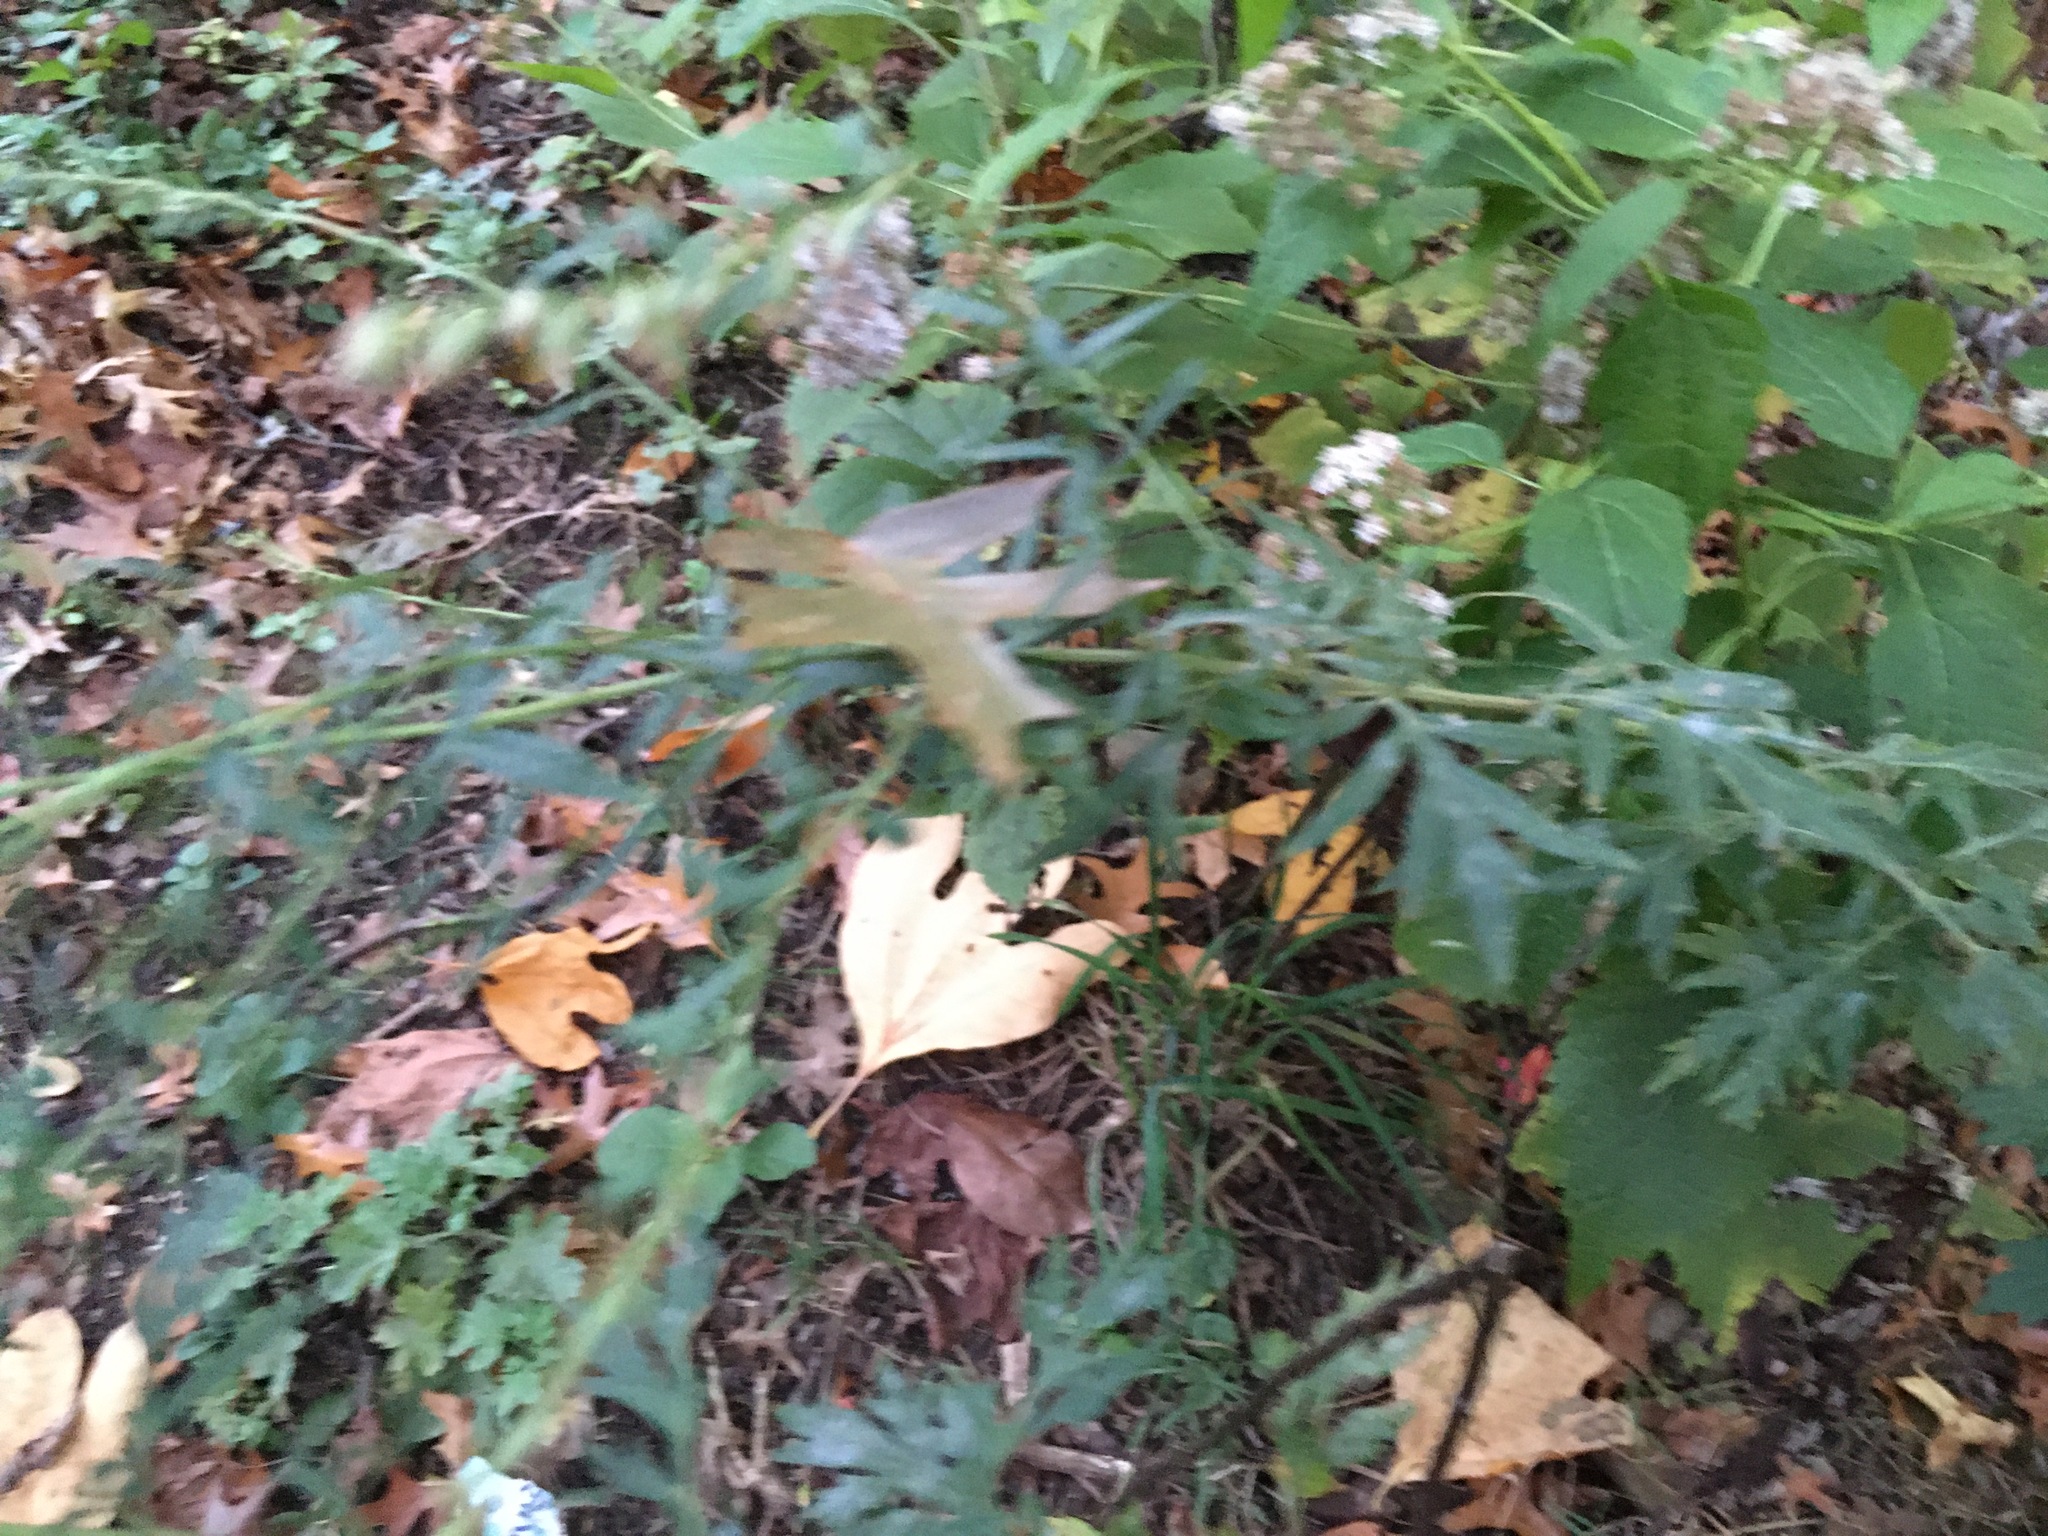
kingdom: Plantae
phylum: Tracheophyta
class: Magnoliopsida
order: Asterales
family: Asteraceae
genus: Artemisia
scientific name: Artemisia vulgaris
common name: Mugwort
